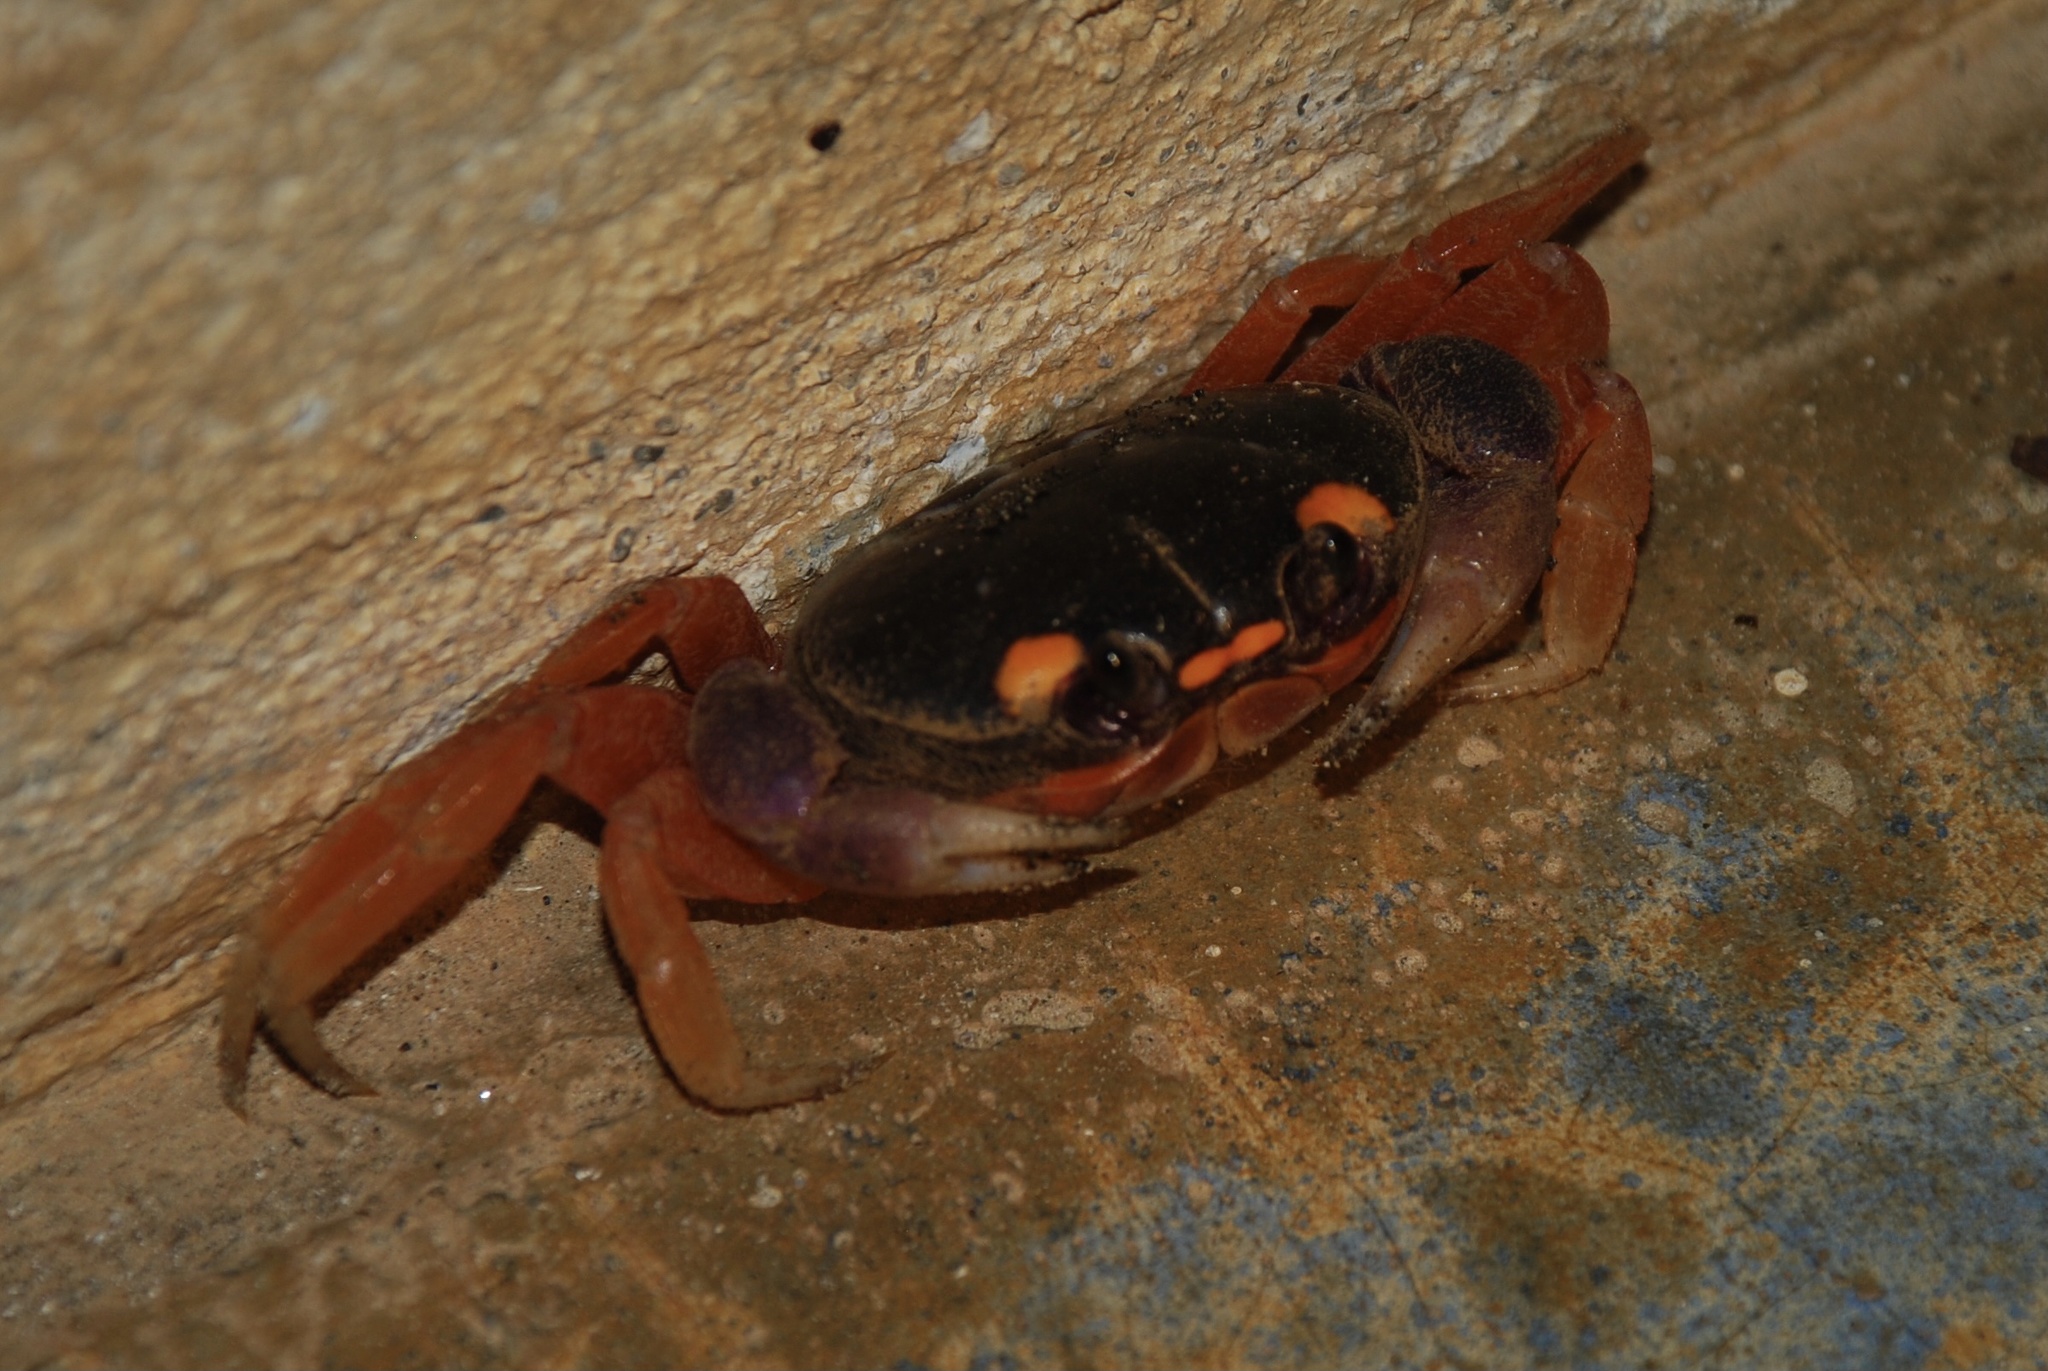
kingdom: Animalia
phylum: Arthropoda
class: Malacostraca
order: Decapoda
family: Gecarcinidae
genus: Gecarcinus
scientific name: Gecarcinus quadratus
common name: Halloween crab
